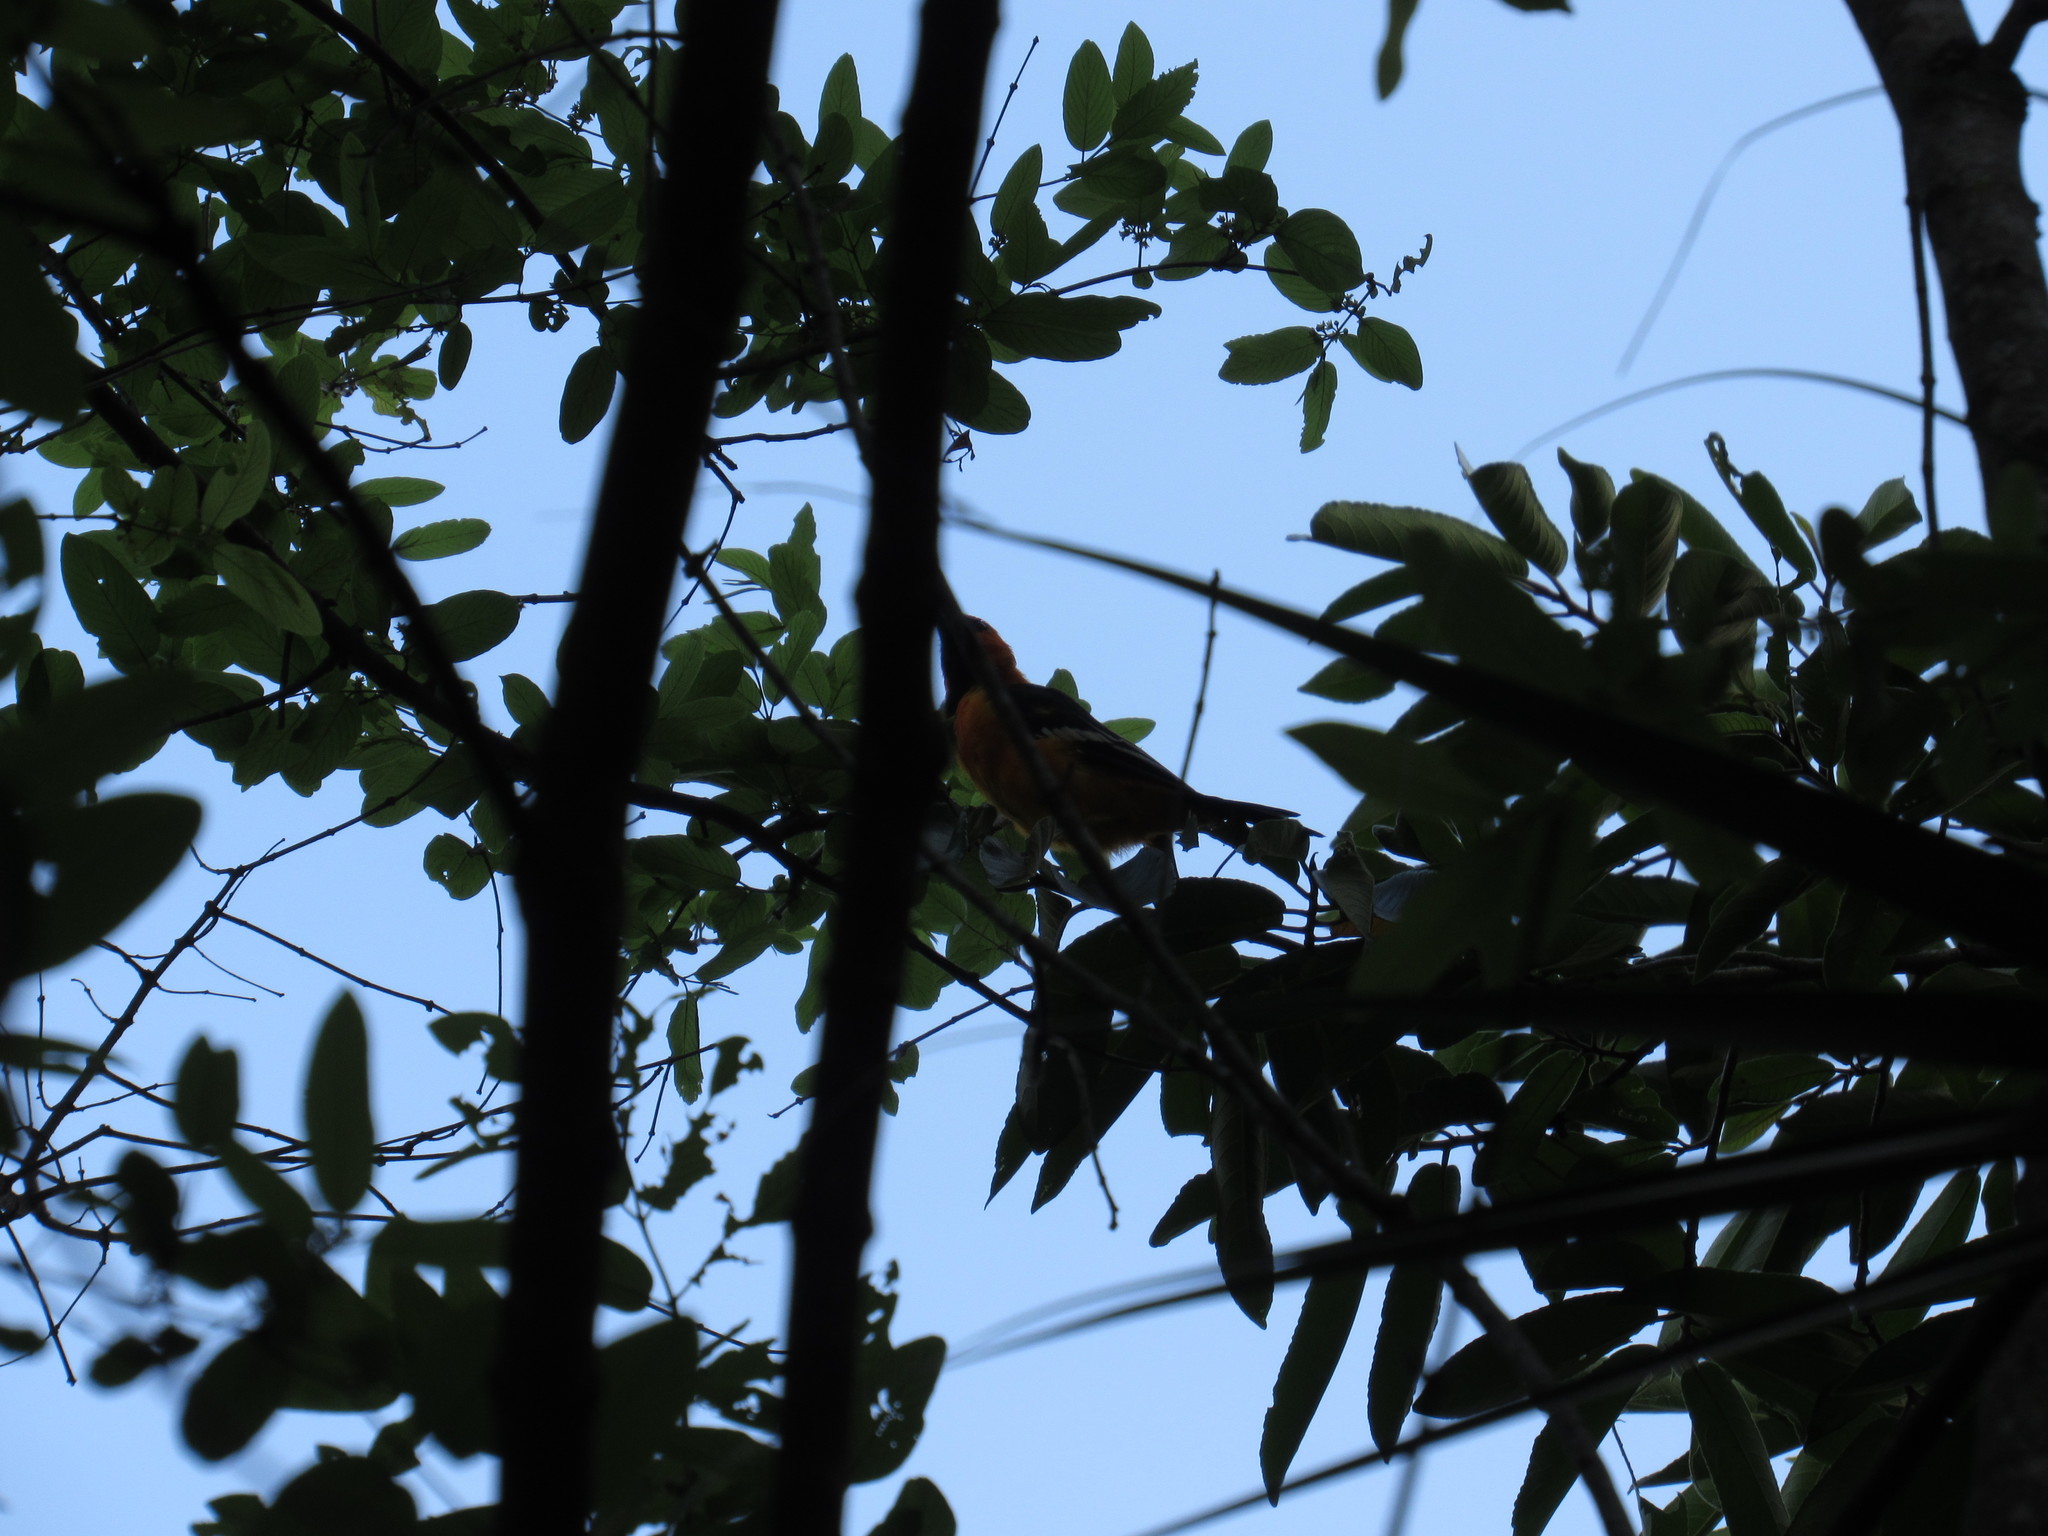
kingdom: Animalia
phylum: Chordata
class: Aves
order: Passeriformes
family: Icteridae
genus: Icterus
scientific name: Icterus gularis
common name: Altamira oriole
